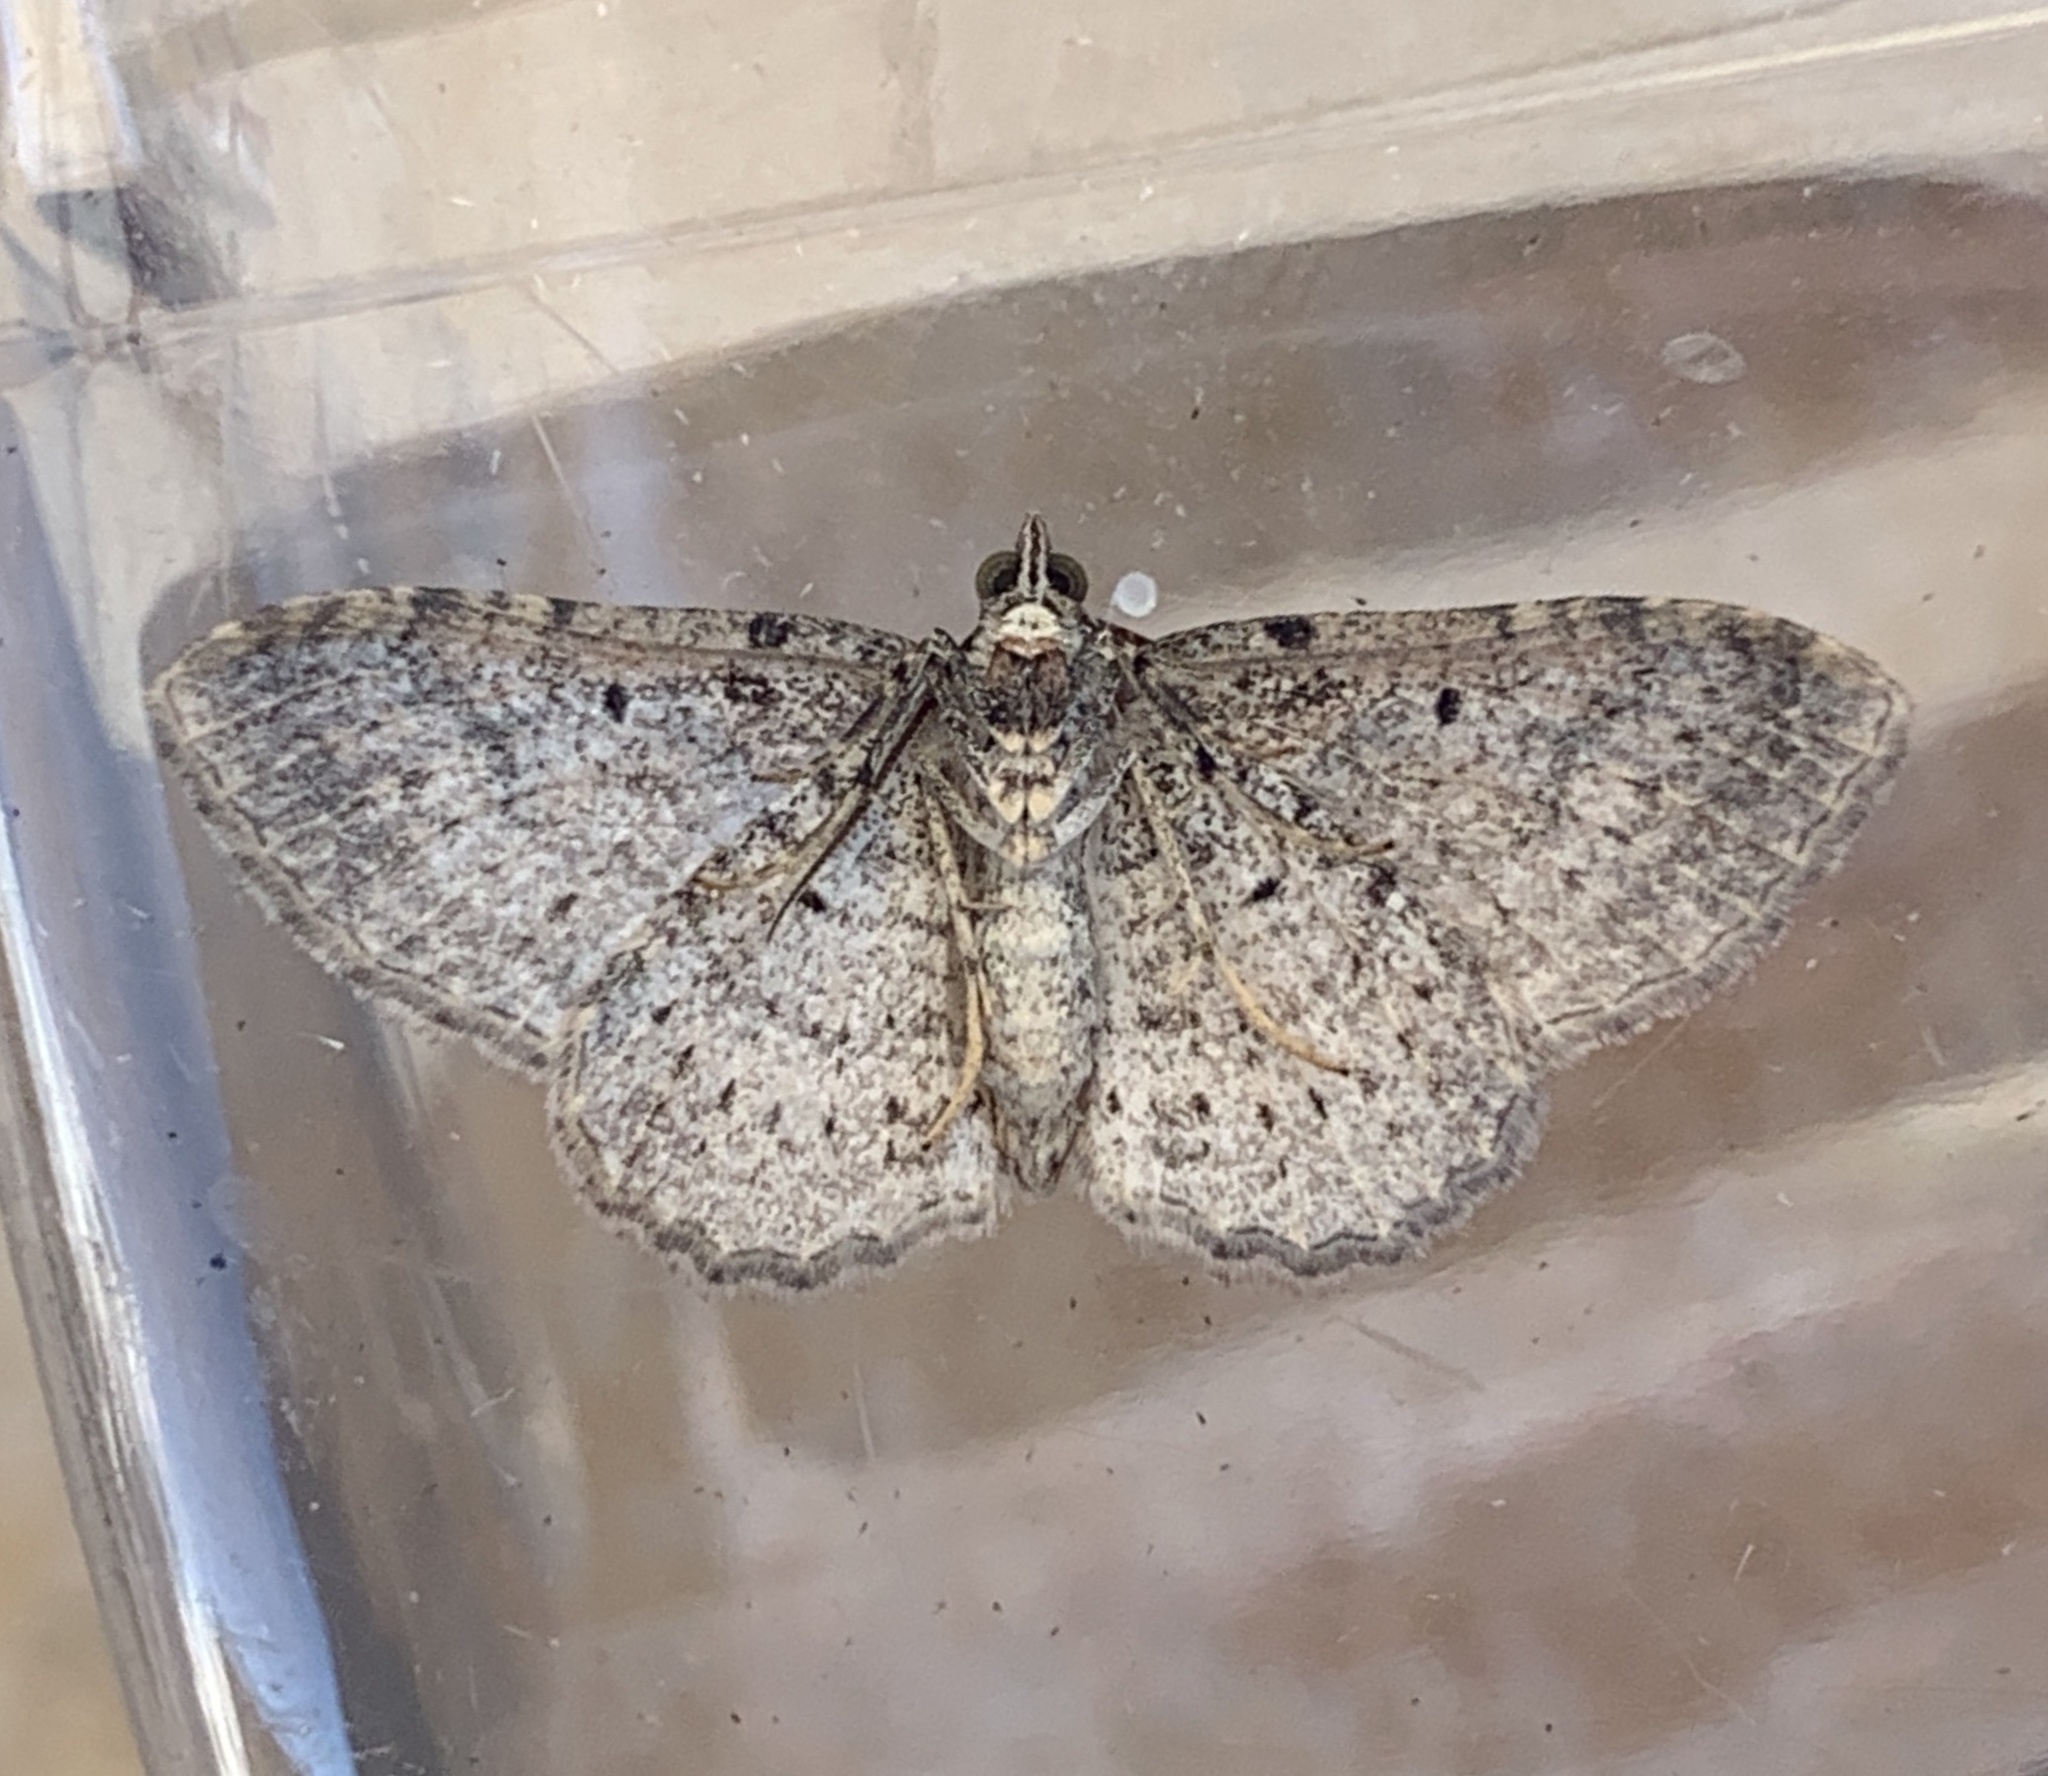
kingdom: Animalia
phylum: Arthropoda
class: Insecta
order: Lepidoptera
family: Geometridae
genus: Costaconvexa
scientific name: Costaconvexa centrostrigaria
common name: Bent-line carpet
